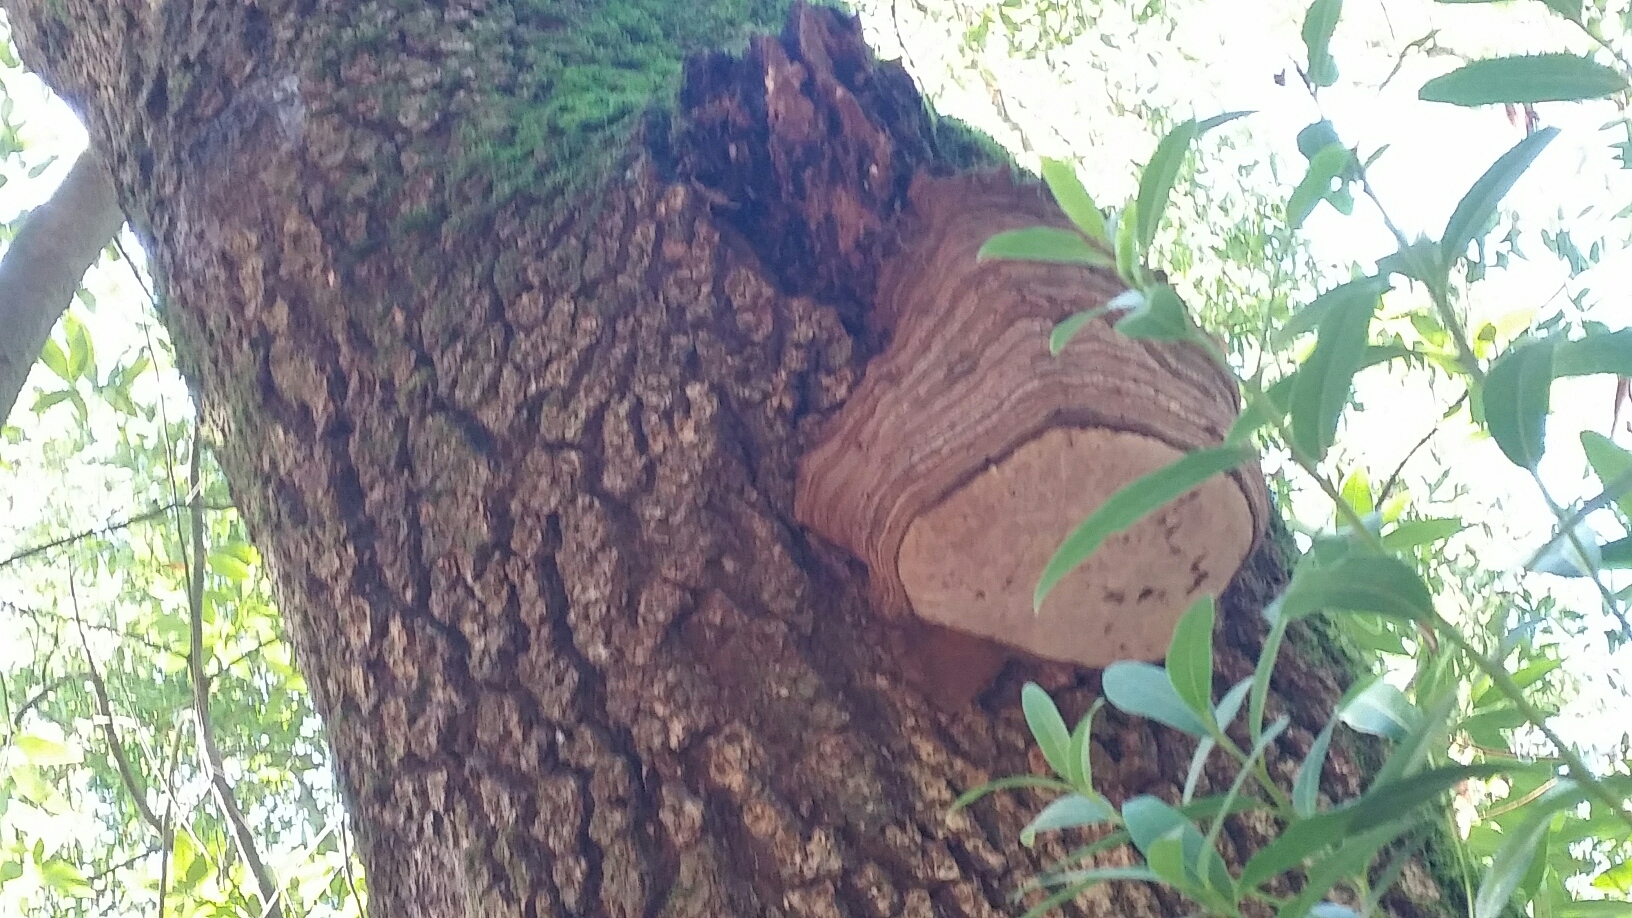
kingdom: Fungi
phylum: Basidiomycota
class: Agaricomycetes
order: Polyporales
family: Polyporaceae
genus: Ganoderma
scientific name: Ganoderma brownii
